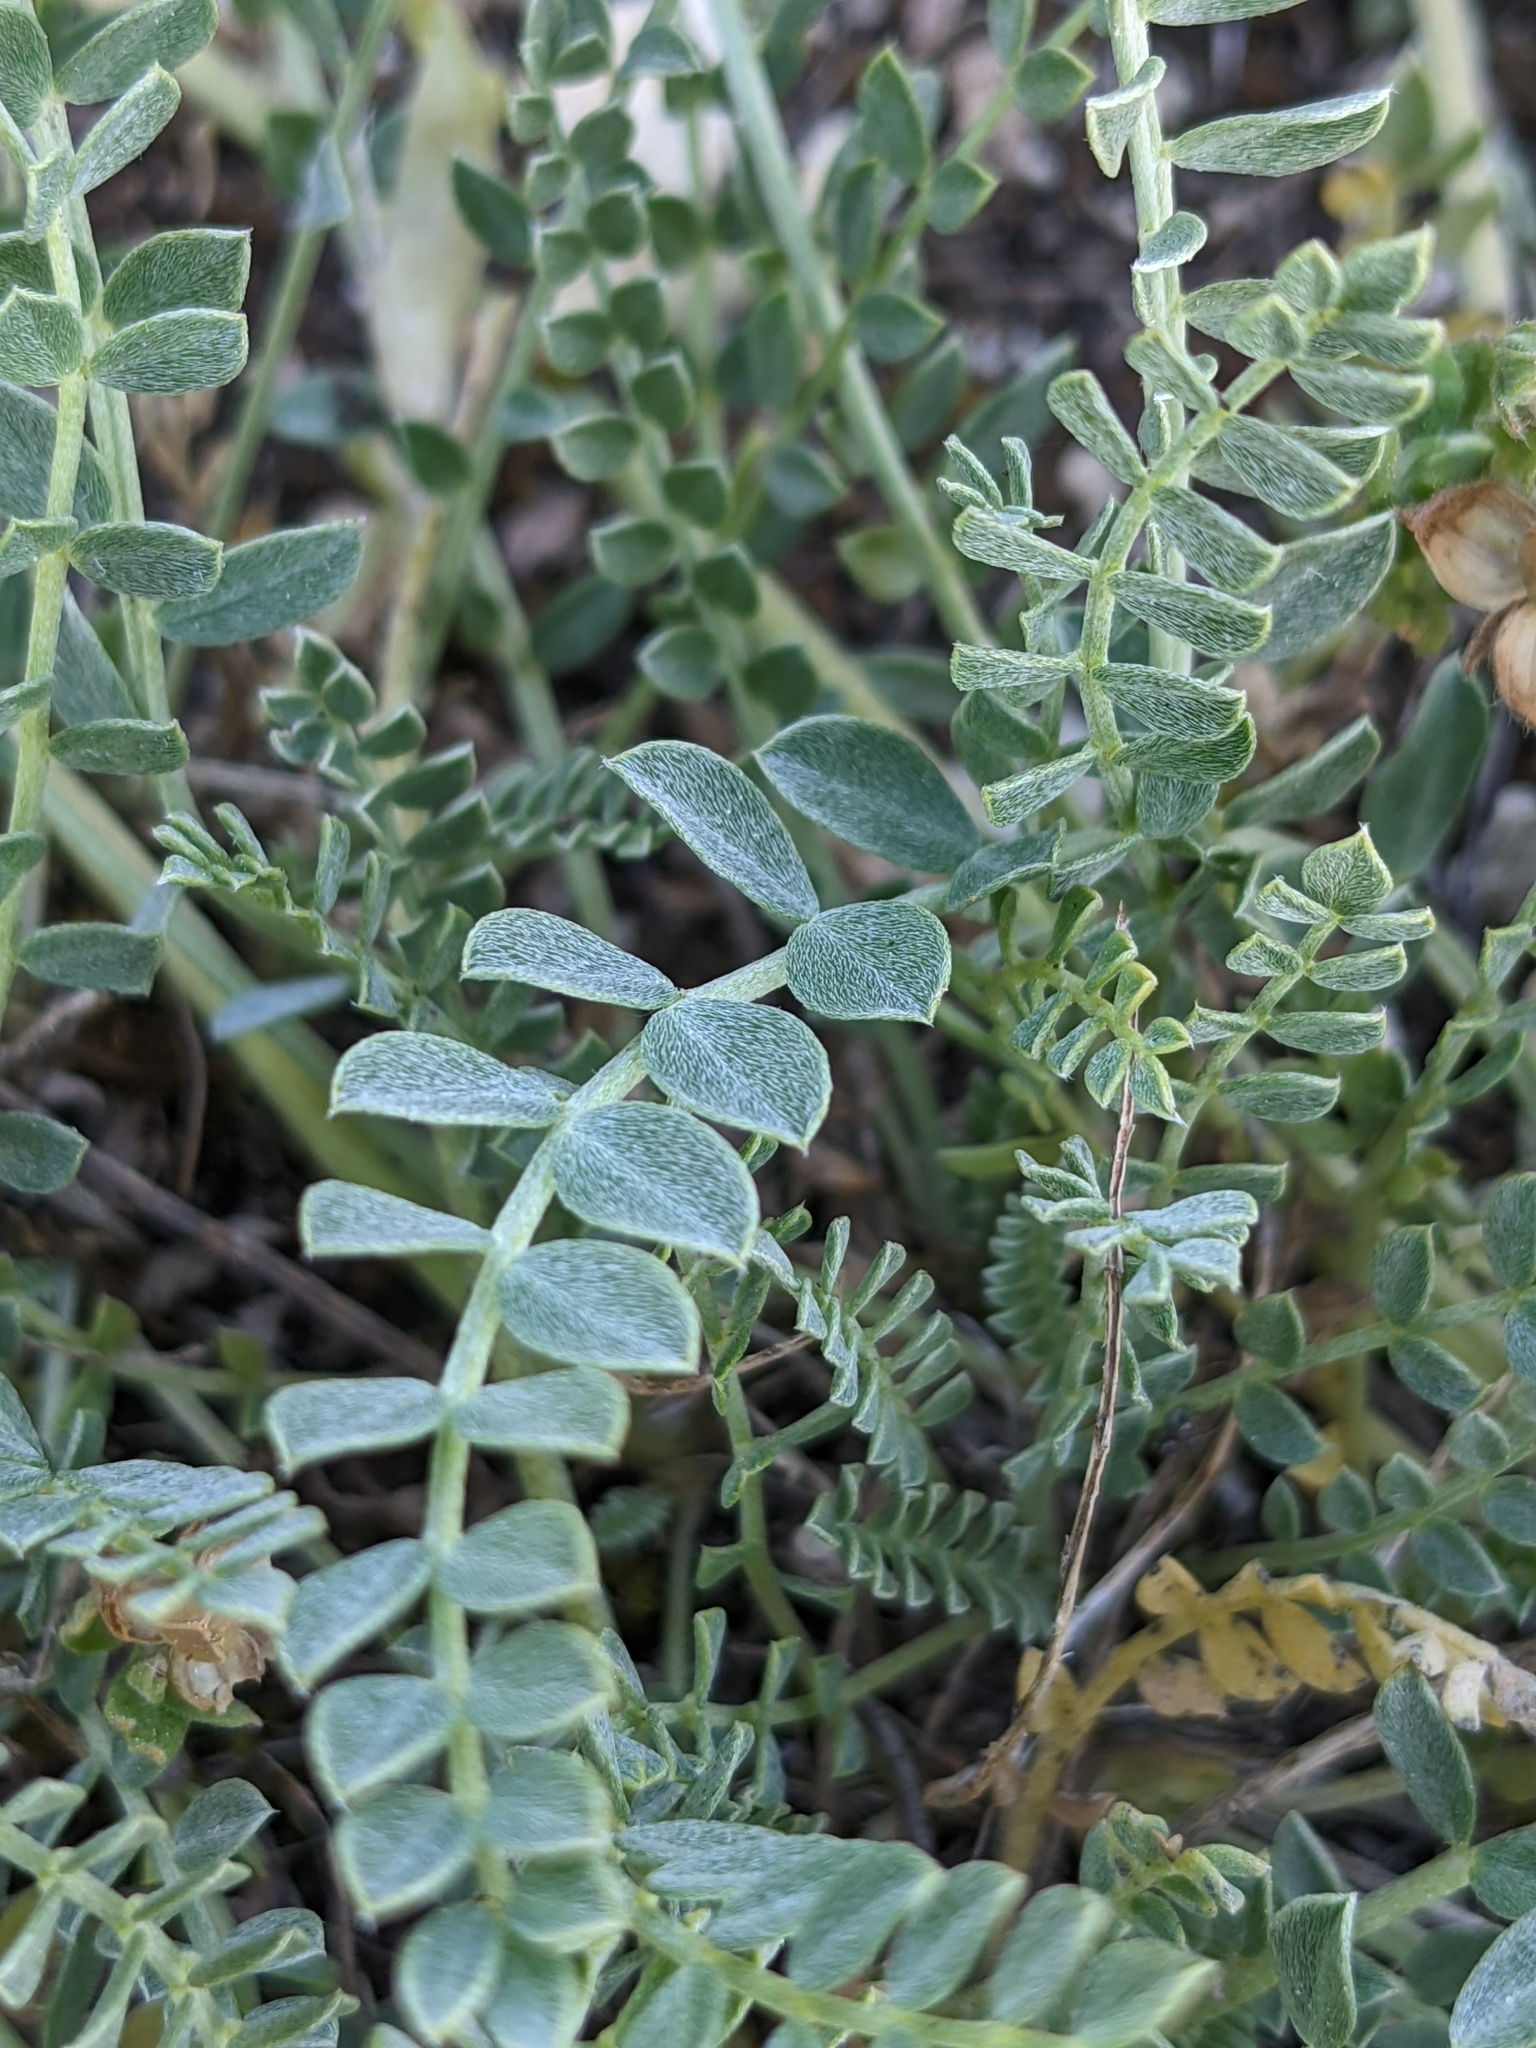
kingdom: Plantae
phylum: Tracheophyta
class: Magnoliopsida
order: Fabales
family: Fabaceae
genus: Astragalus
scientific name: Astragalus incanus
